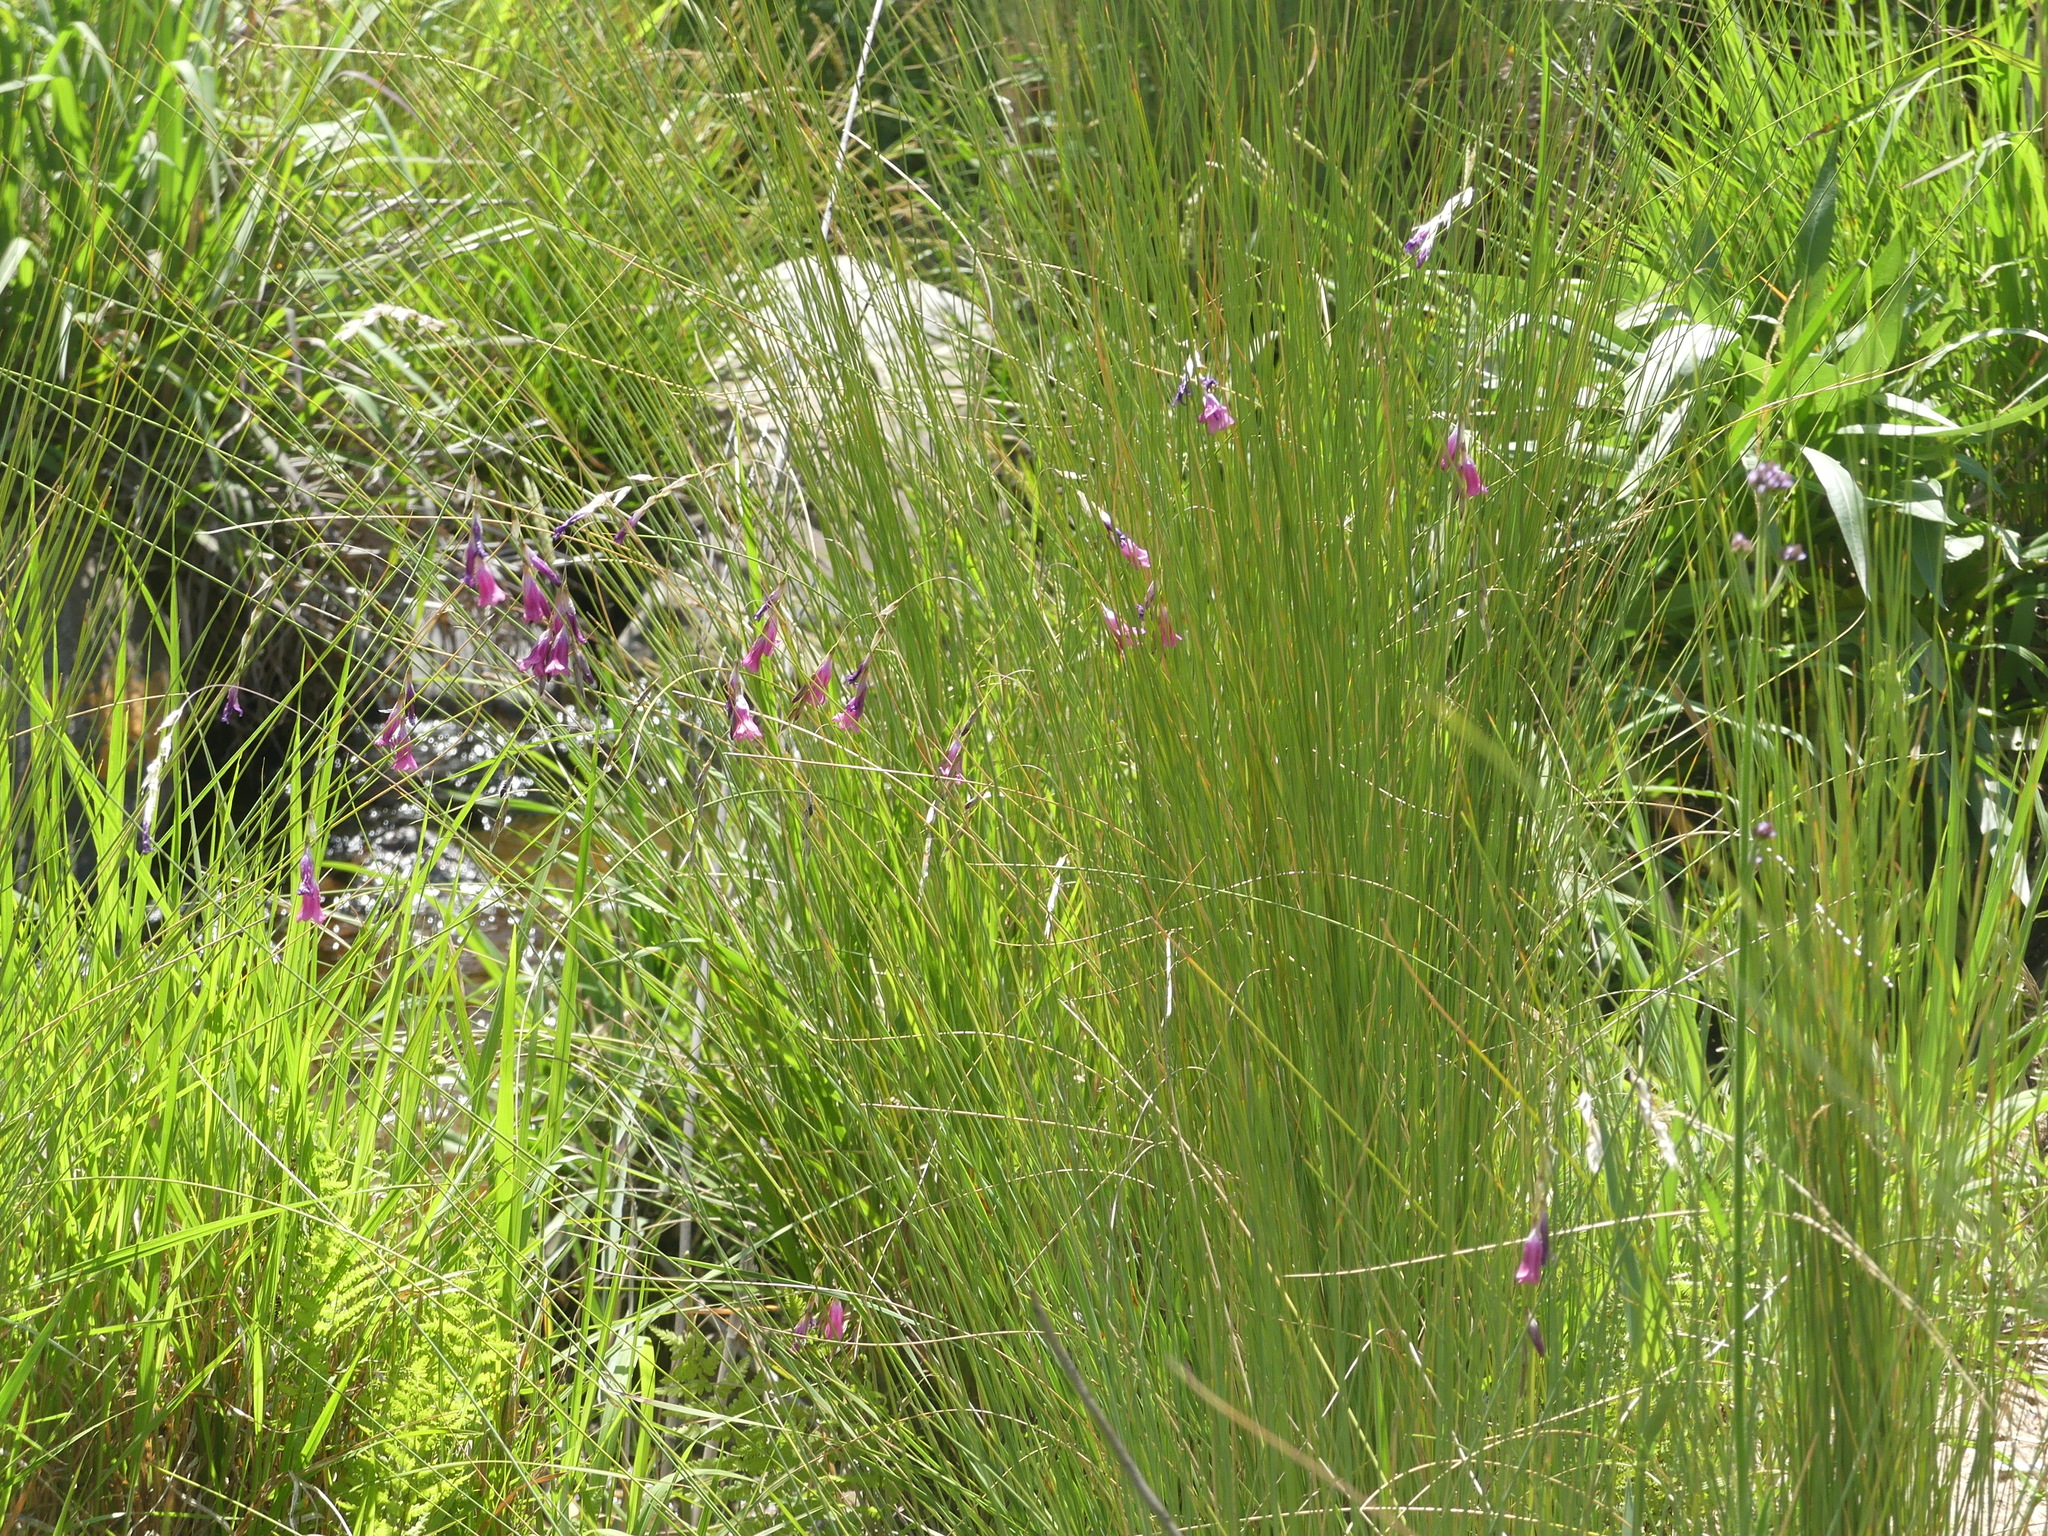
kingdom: Plantae
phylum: Tracheophyta
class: Liliopsida
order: Asparagales
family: Iridaceae
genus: Dierama
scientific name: Dierama mossii
